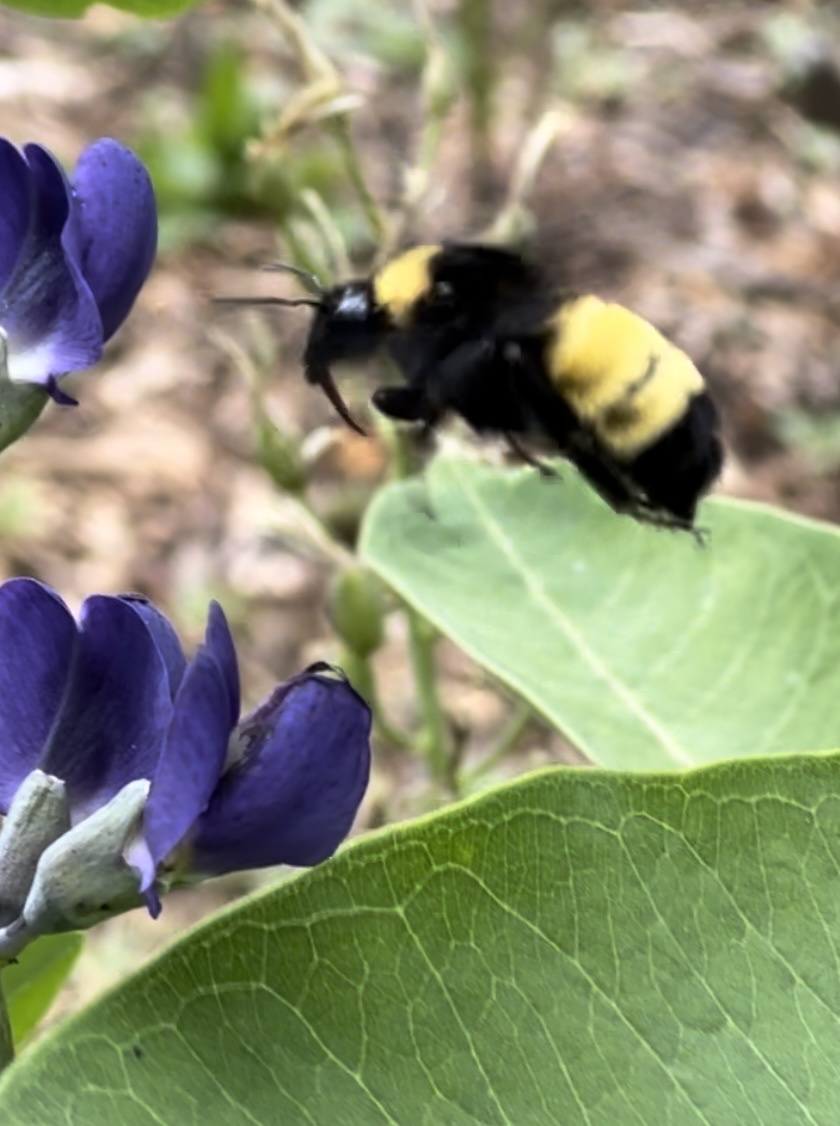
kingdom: Animalia
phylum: Arthropoda
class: Insecta
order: Hymenoptera
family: Apidae
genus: Bombus
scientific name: Bombus pensylvanicus
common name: Bumble bee
